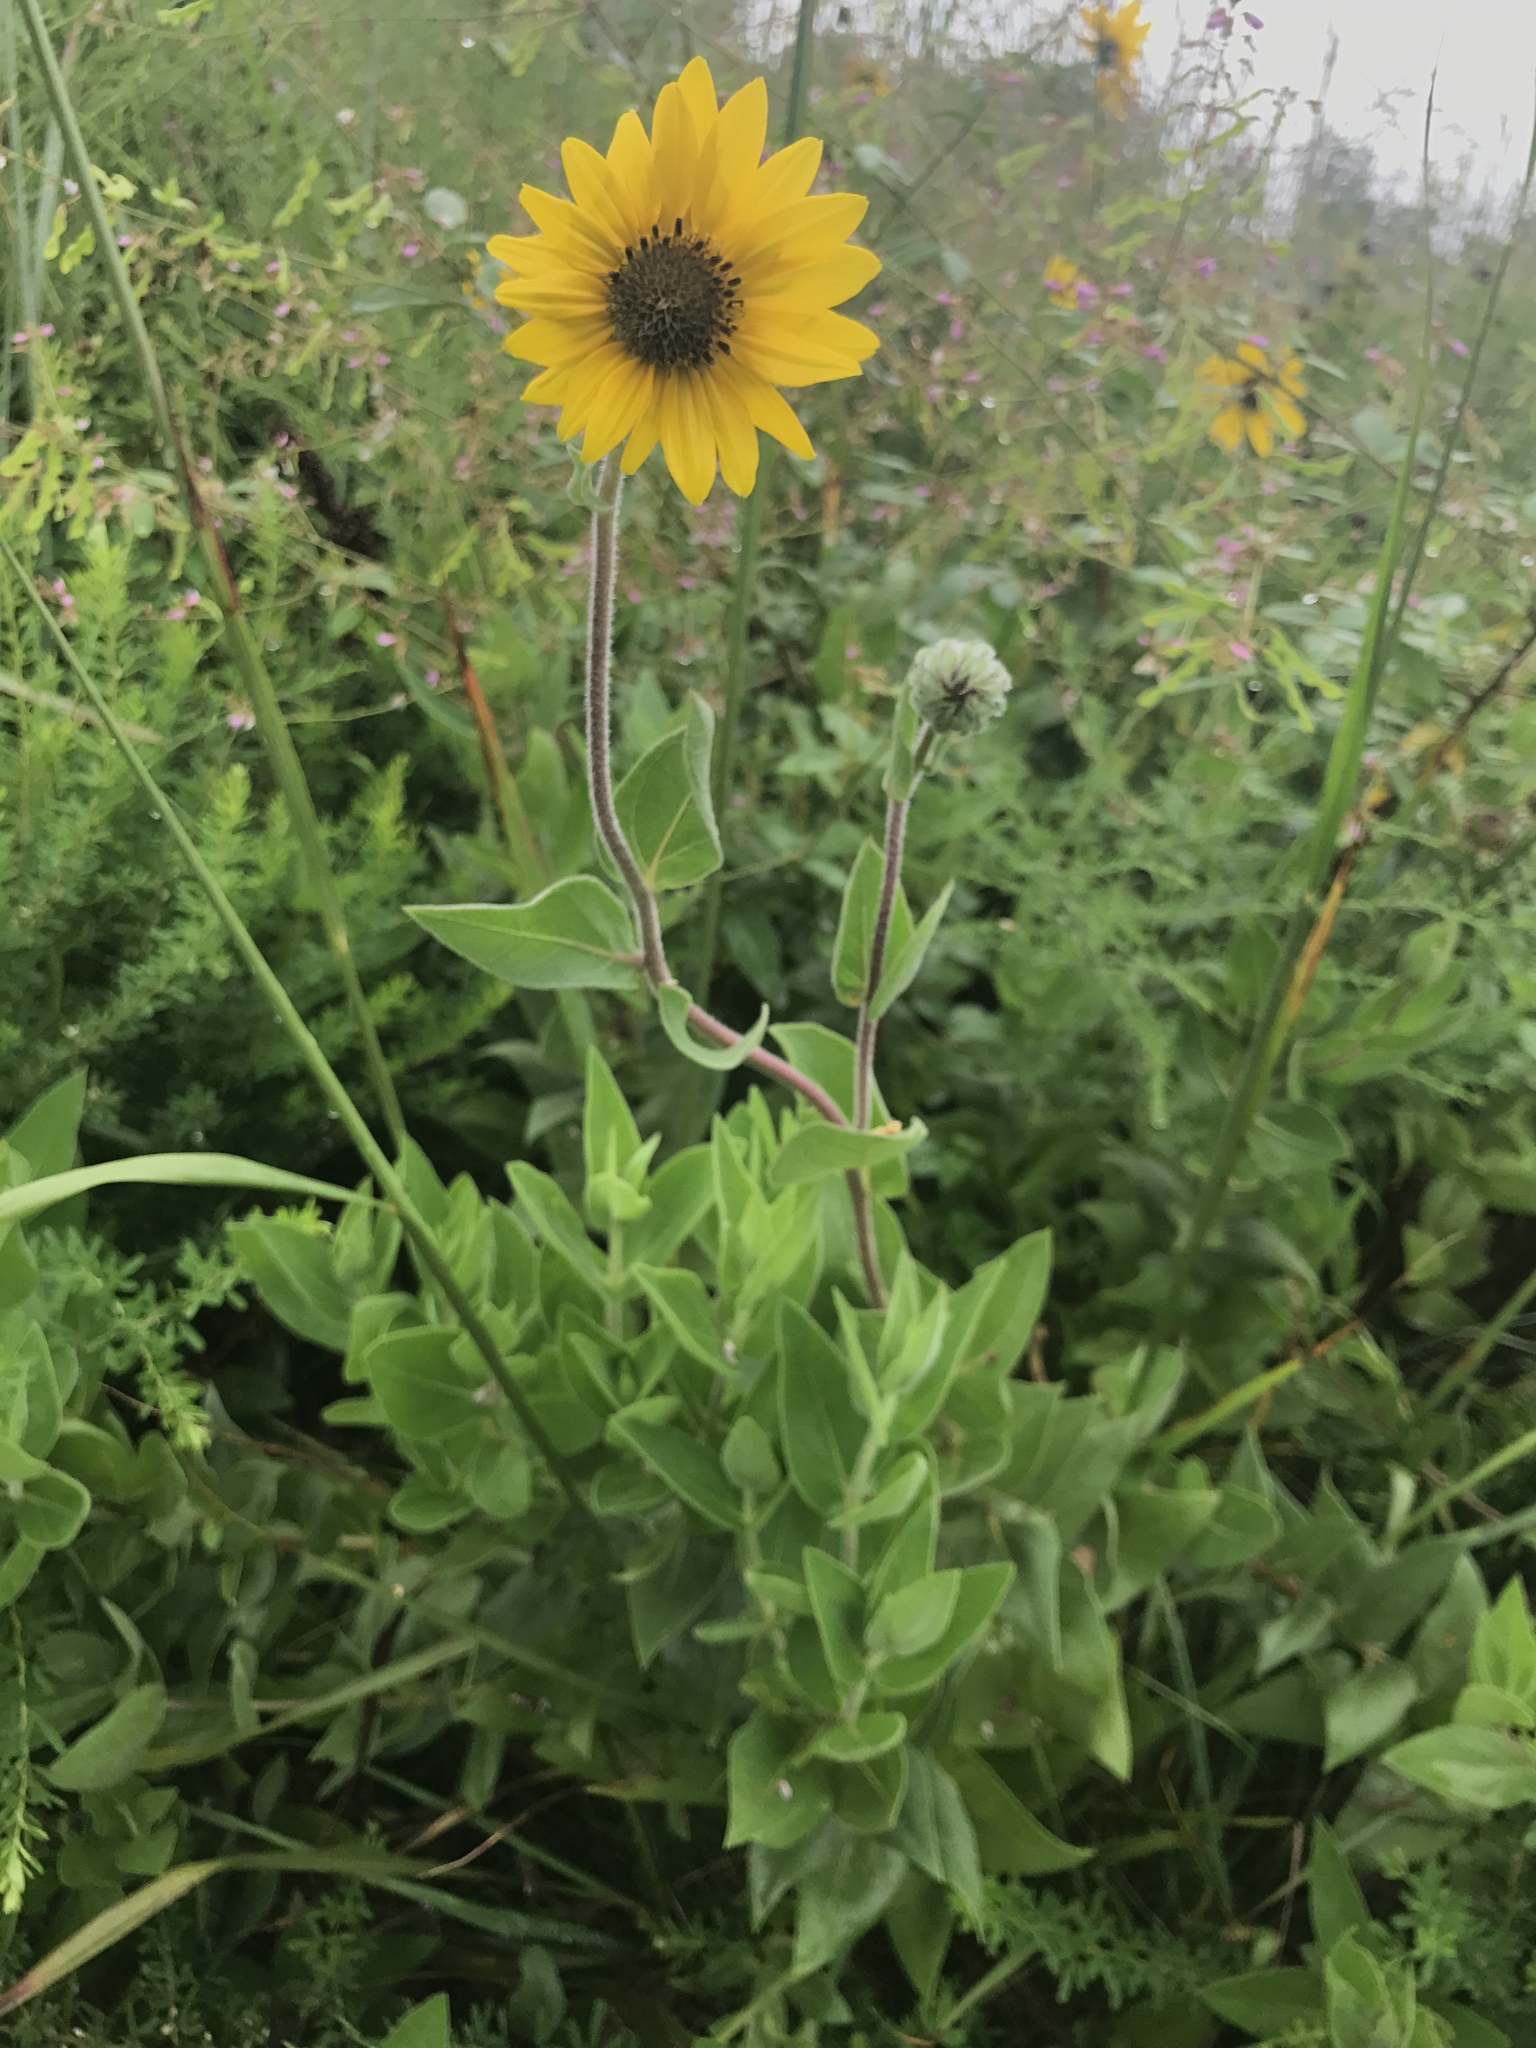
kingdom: Plantae
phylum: Tracheophyta
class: Magnoliopsida
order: Asterales
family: Asteraceae
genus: Helianthus
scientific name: Helianthus mollis
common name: Ashy sunflower
